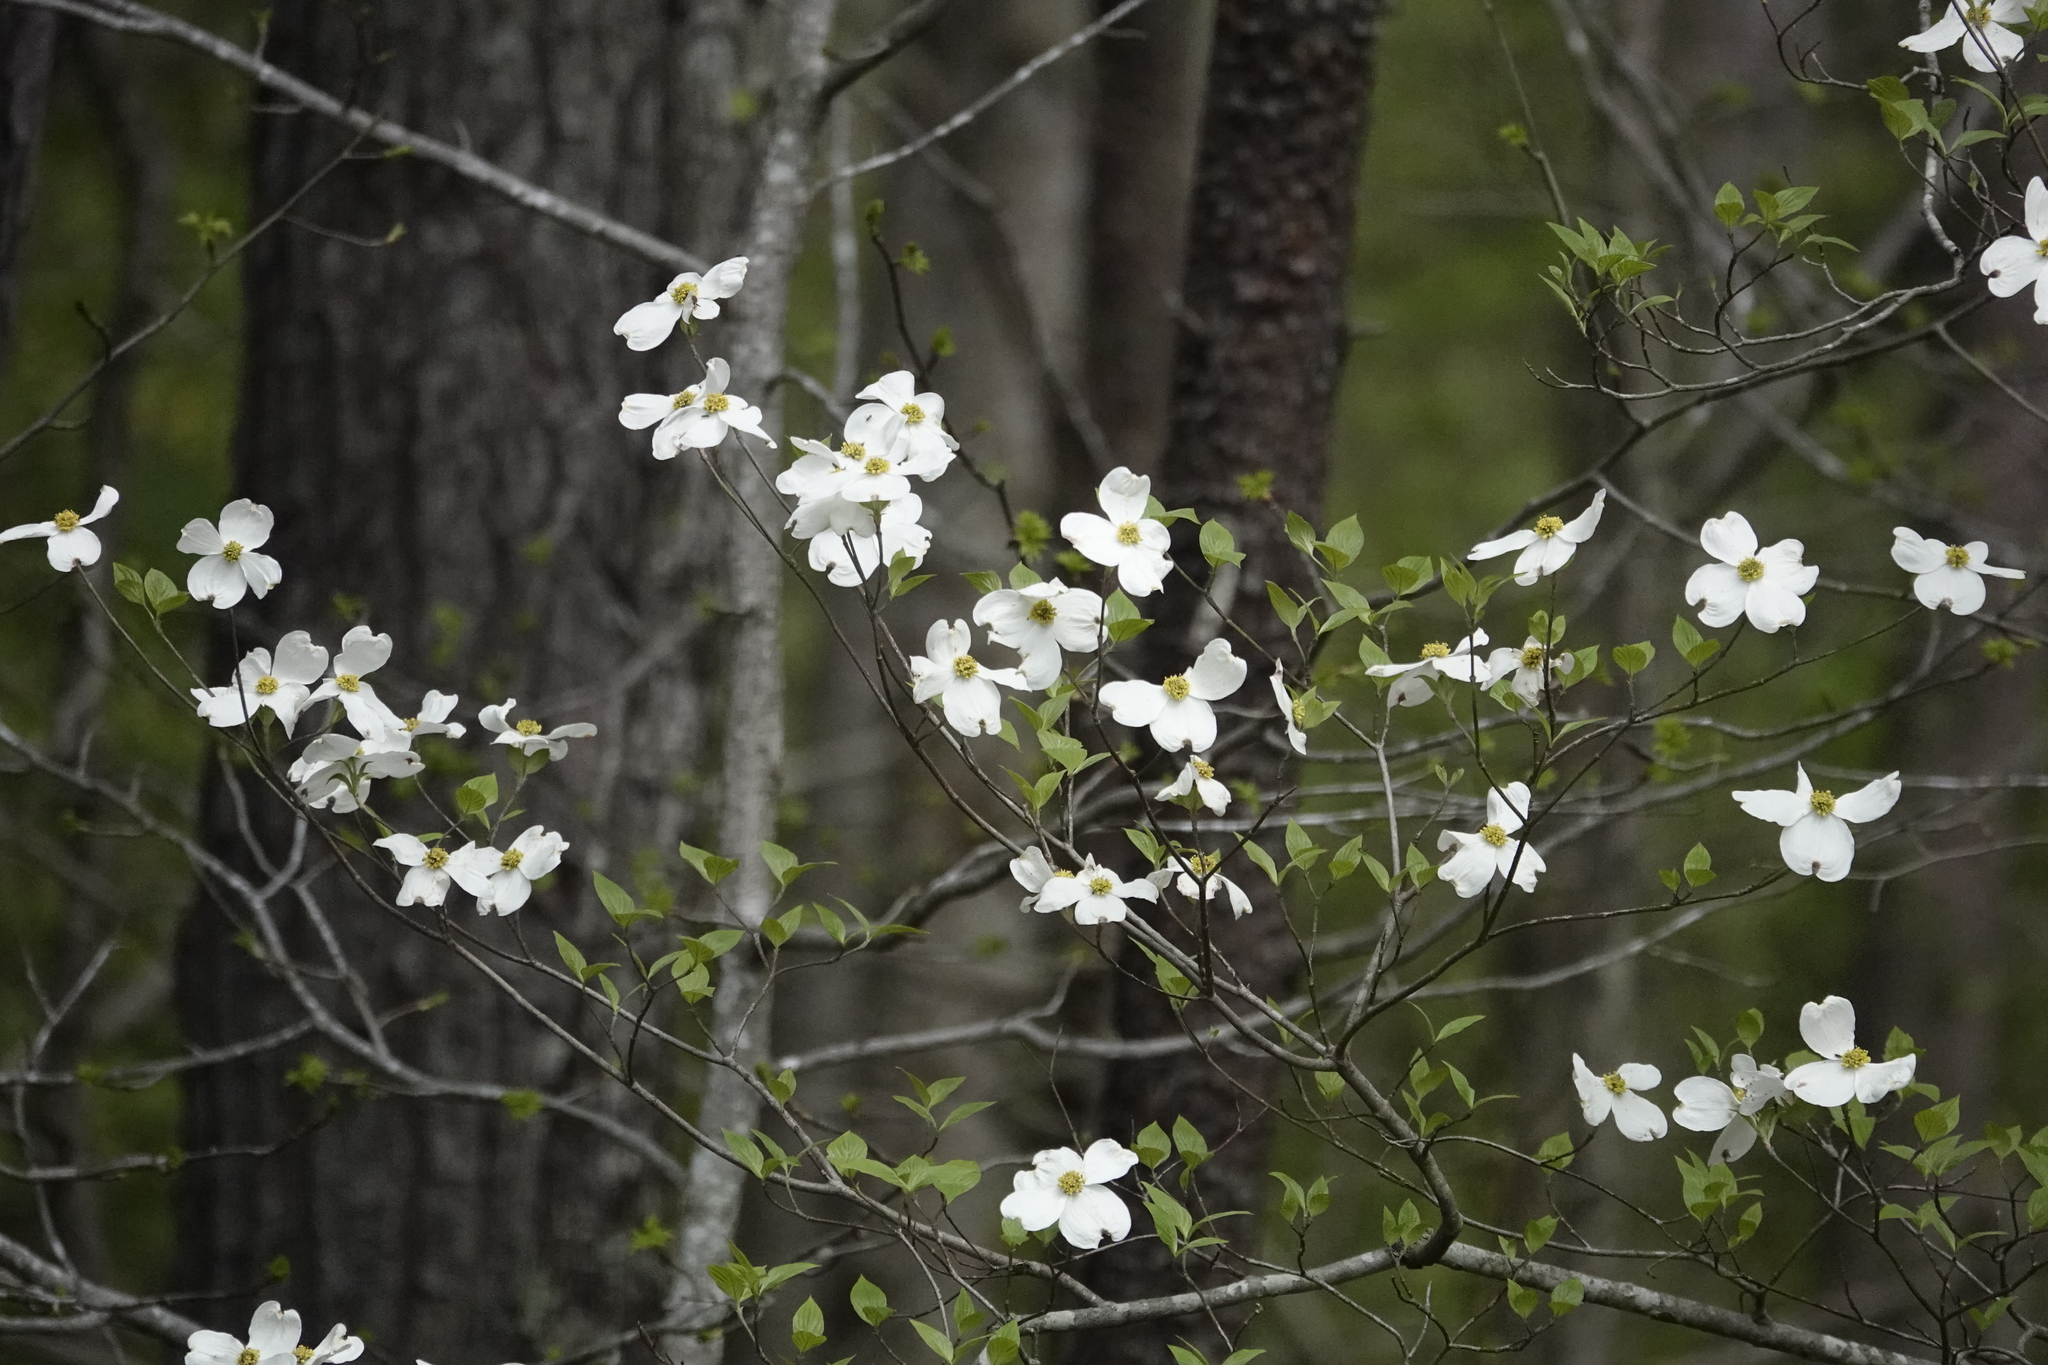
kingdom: Plantae
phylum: Tracheophyta
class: Magnoliopsida
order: Cornales
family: Cornaceae
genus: Cornus
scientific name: Cornus florida
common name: Flowering dogwood
